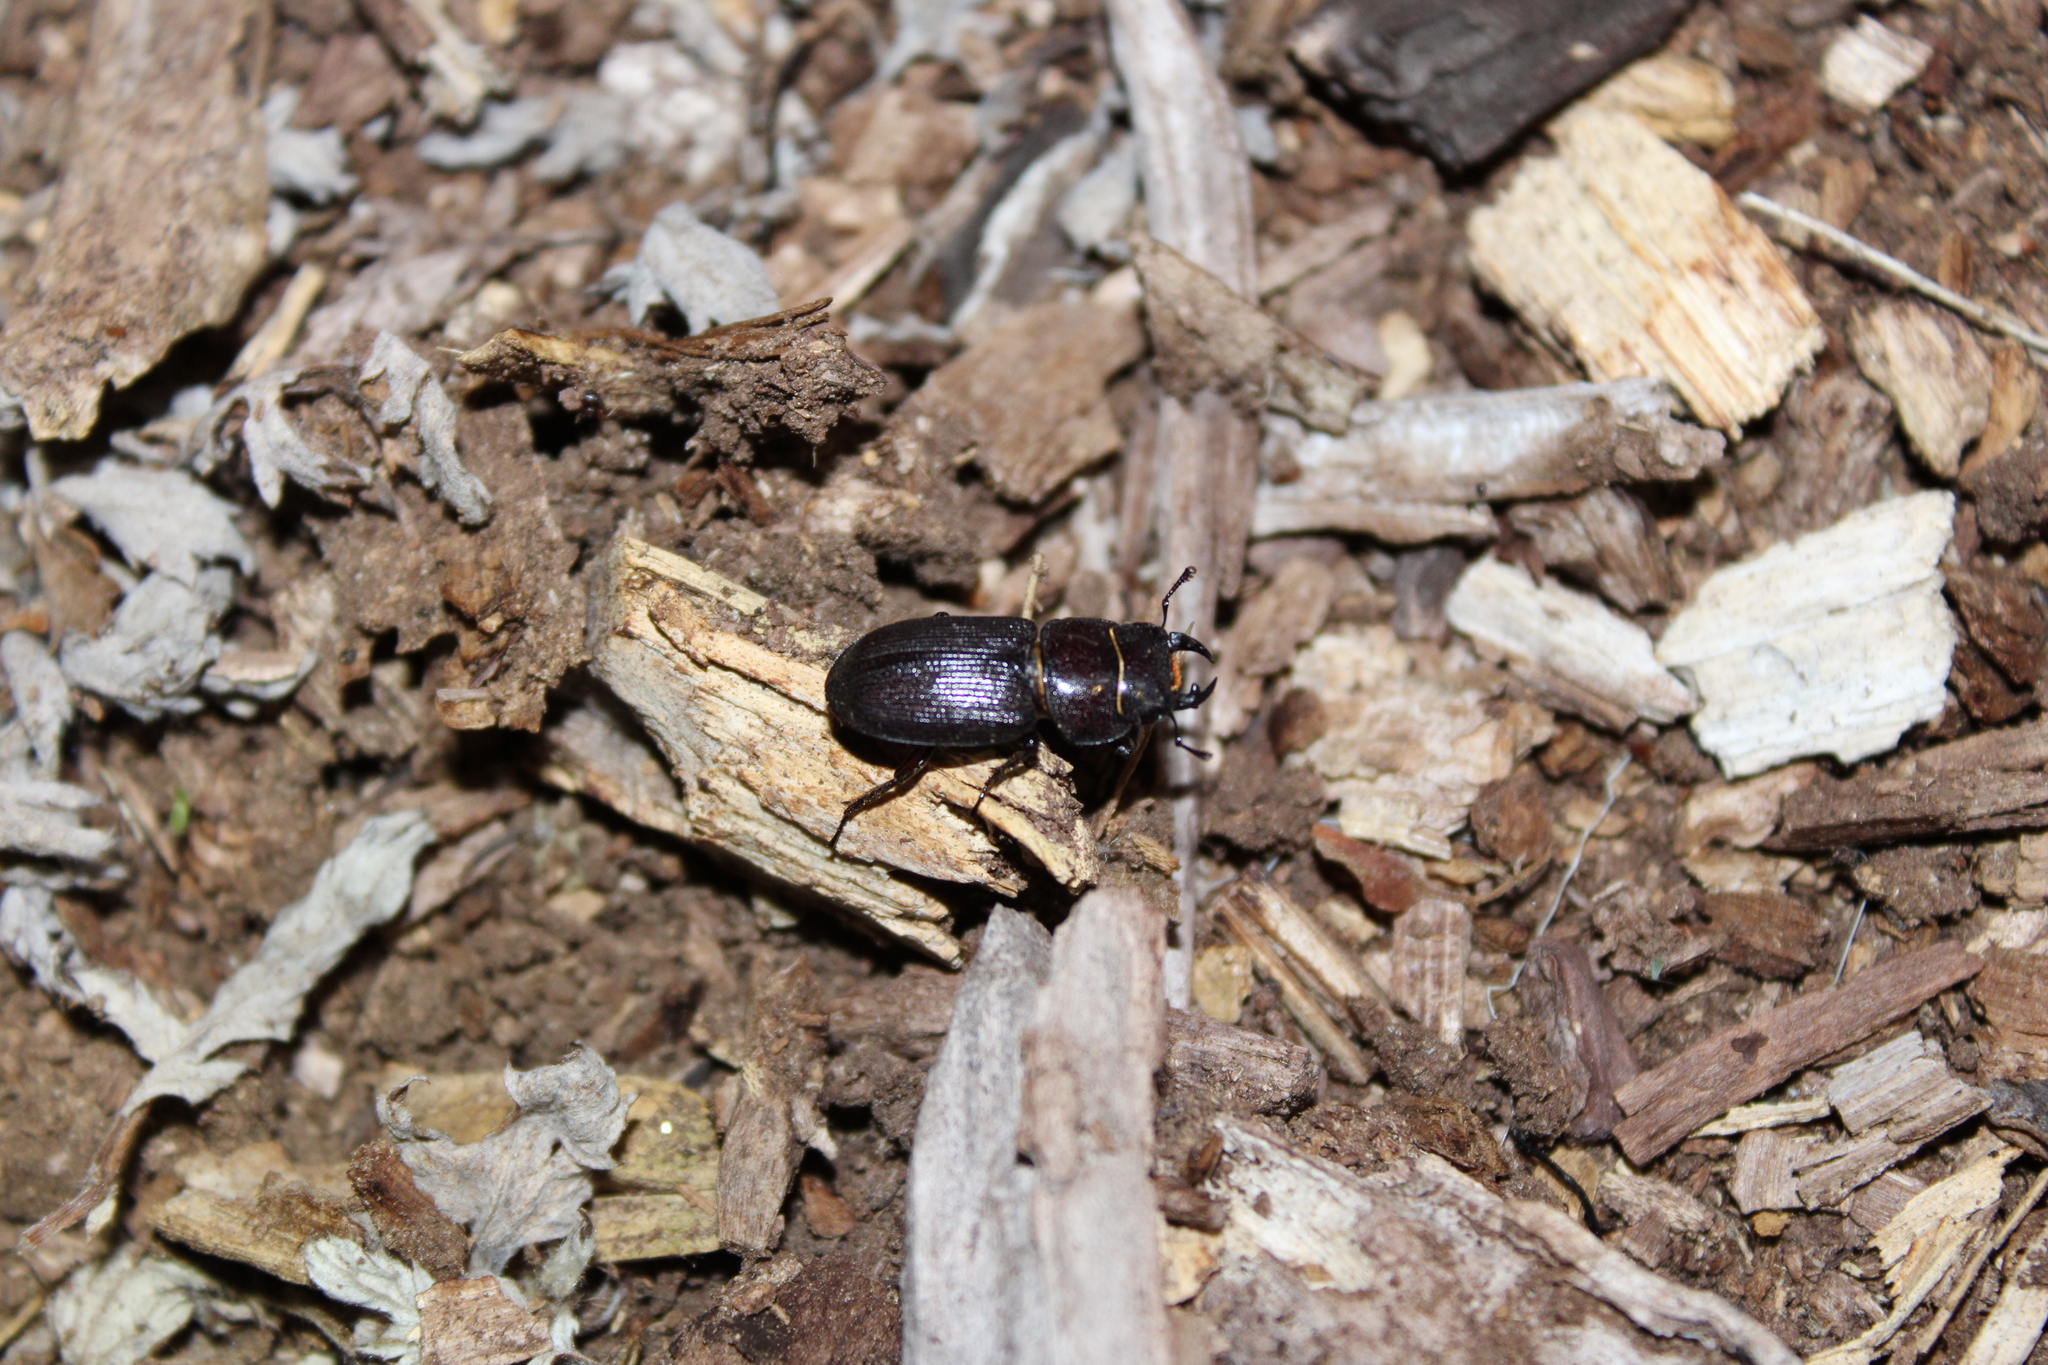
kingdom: Animalia
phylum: Arthropoda
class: Insecta
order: Coleoptera
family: Lucanidae
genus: Dorcus
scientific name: Dorcus parallelus
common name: Antelope beetle
